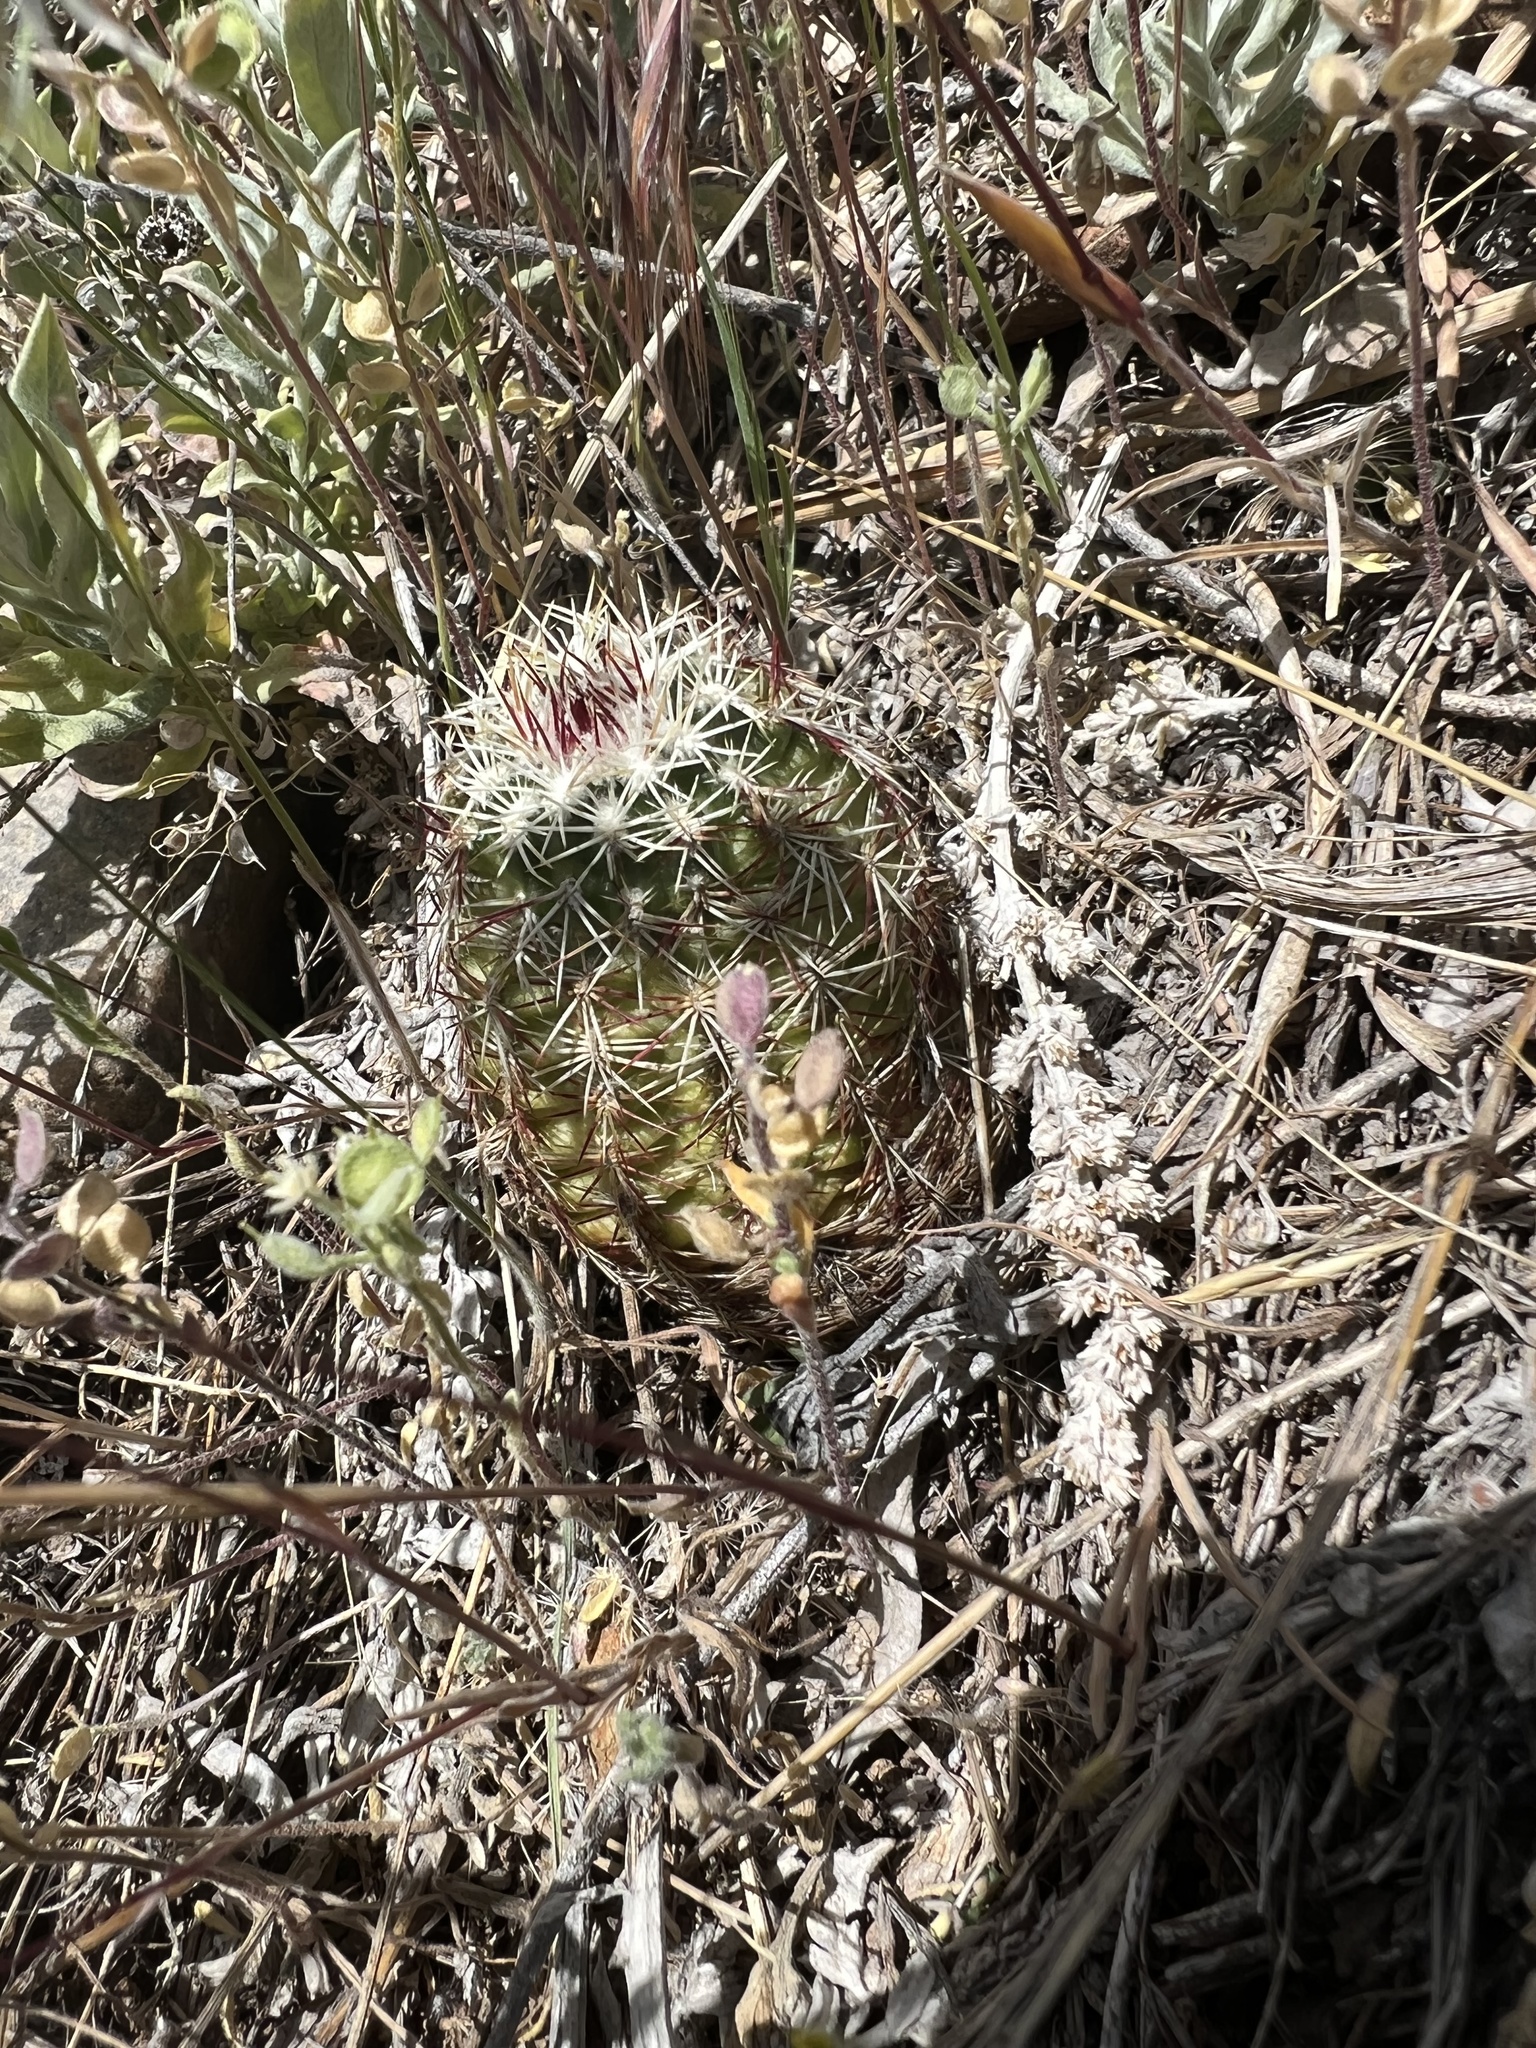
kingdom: Plantae
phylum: Tracheophyta
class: Magnoliopsida
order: Caryophyllales
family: Cactaceae
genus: Echinocereus
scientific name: Echinocereus viridiflorus
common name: Nylon hedgehog cactus
